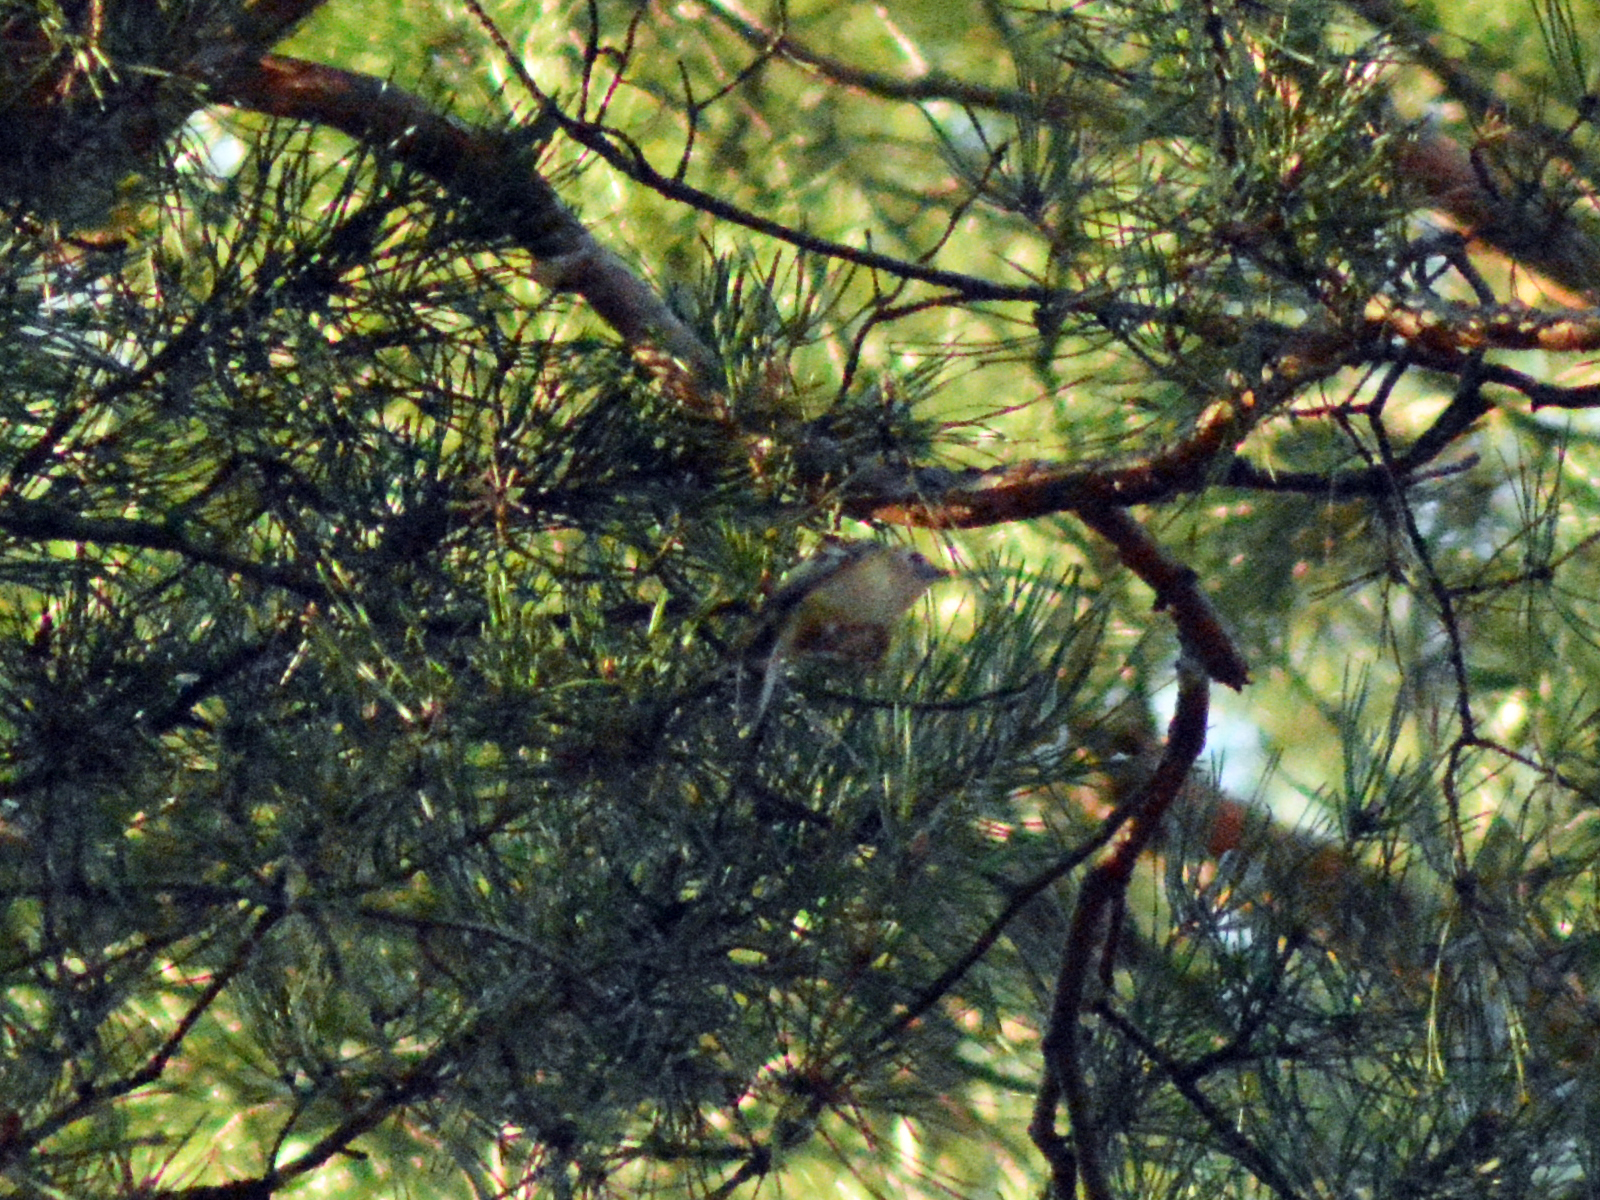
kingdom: Animalia
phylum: Chordata
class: Aves
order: Passeriformes
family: Regulidae
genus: Regulus
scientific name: Regulus regulus
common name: Goldcrest
